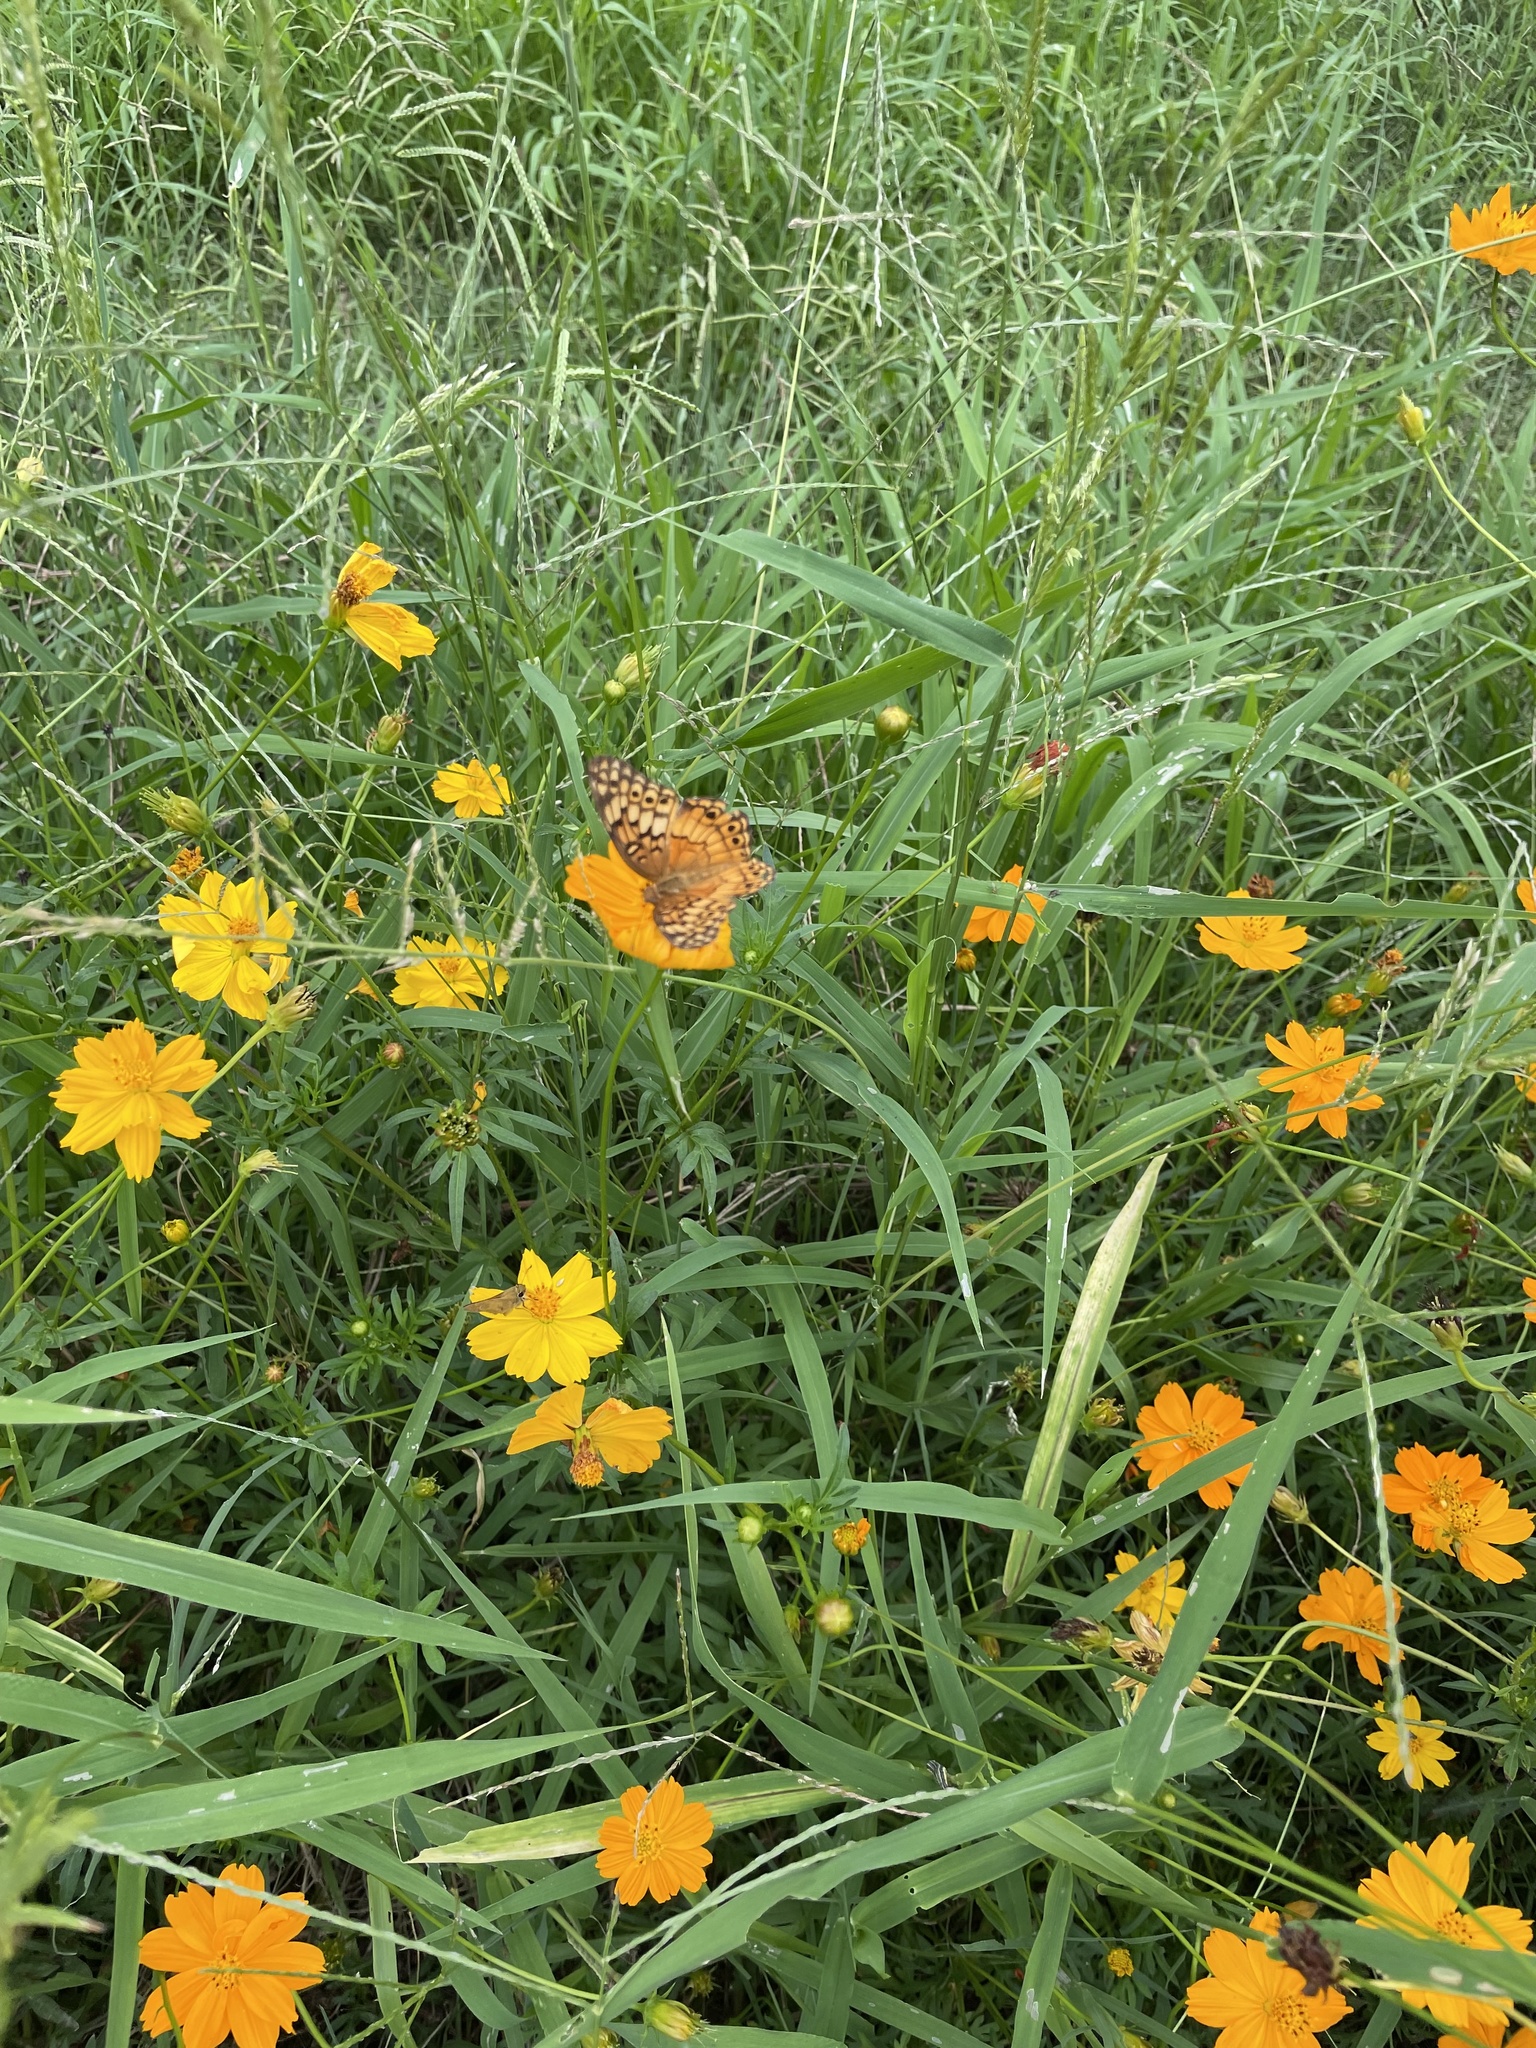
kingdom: Animalia
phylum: Arthropoda
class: Insecta
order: Lepidoptera
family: Nymphalidae
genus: Euptoieta
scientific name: Euptoieta claudia
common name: Variegated fritillary
